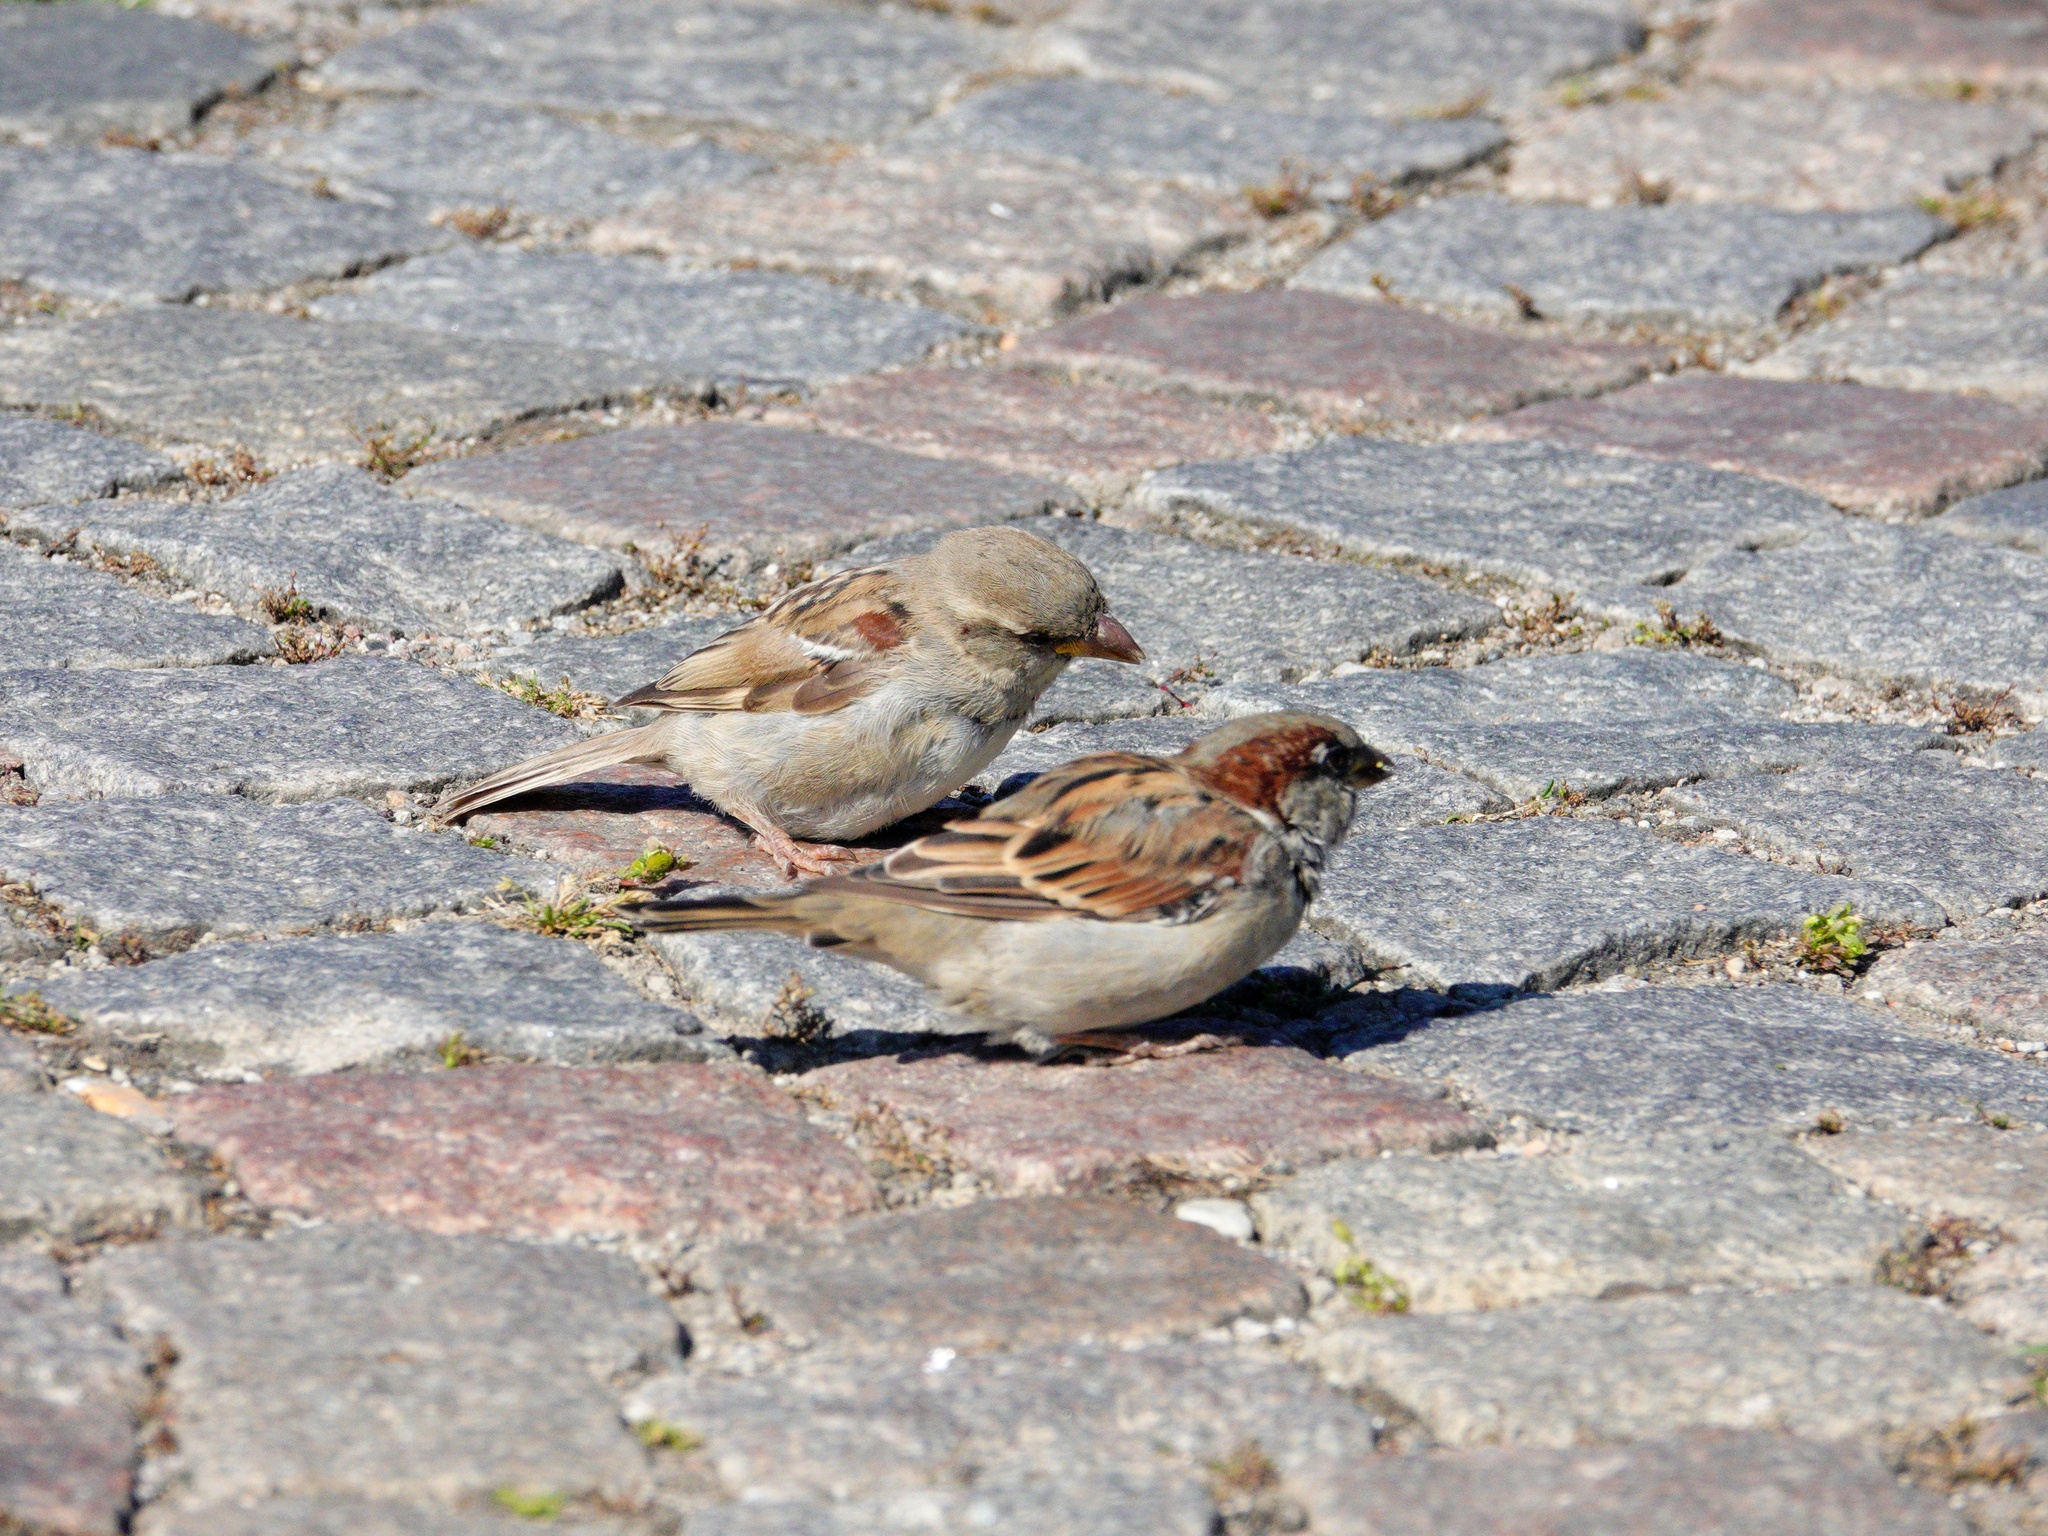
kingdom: Animalia
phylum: Chordata
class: Aves
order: Passeriformes
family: Passeridae
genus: Passer
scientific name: Passer domesticus
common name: House sparrow
